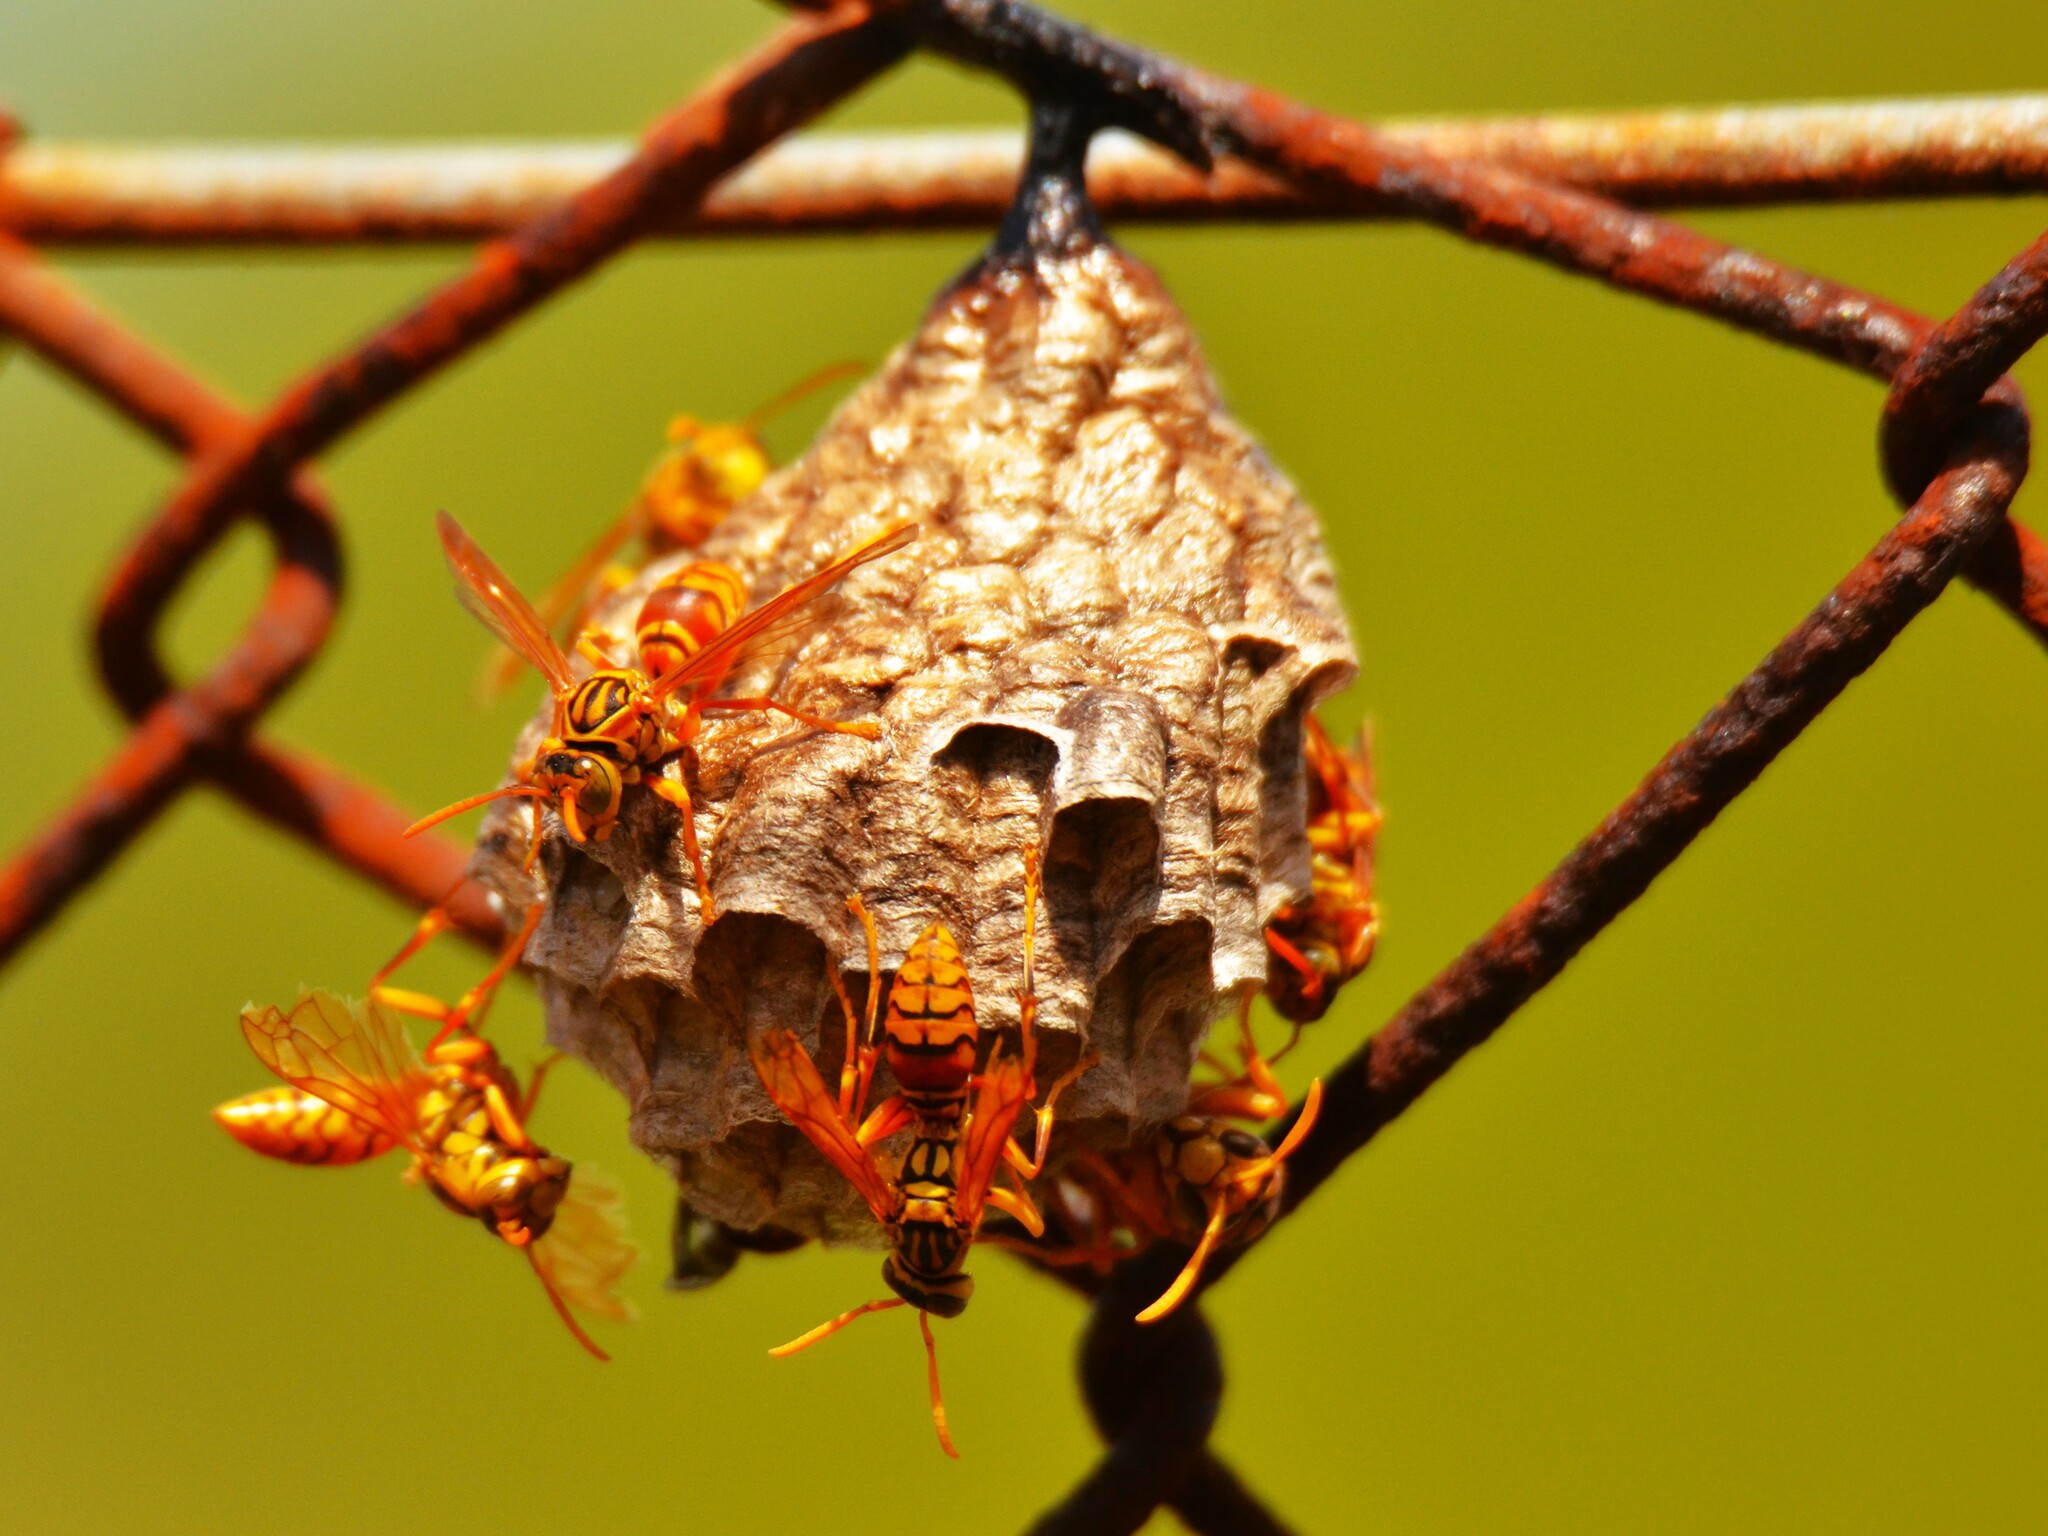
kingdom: Animalia
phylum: Arthropoda
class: Insecta
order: Hymenoptera
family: Eumenidae
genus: Polistes
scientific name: Polistes olivaceus
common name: Paper wasp
